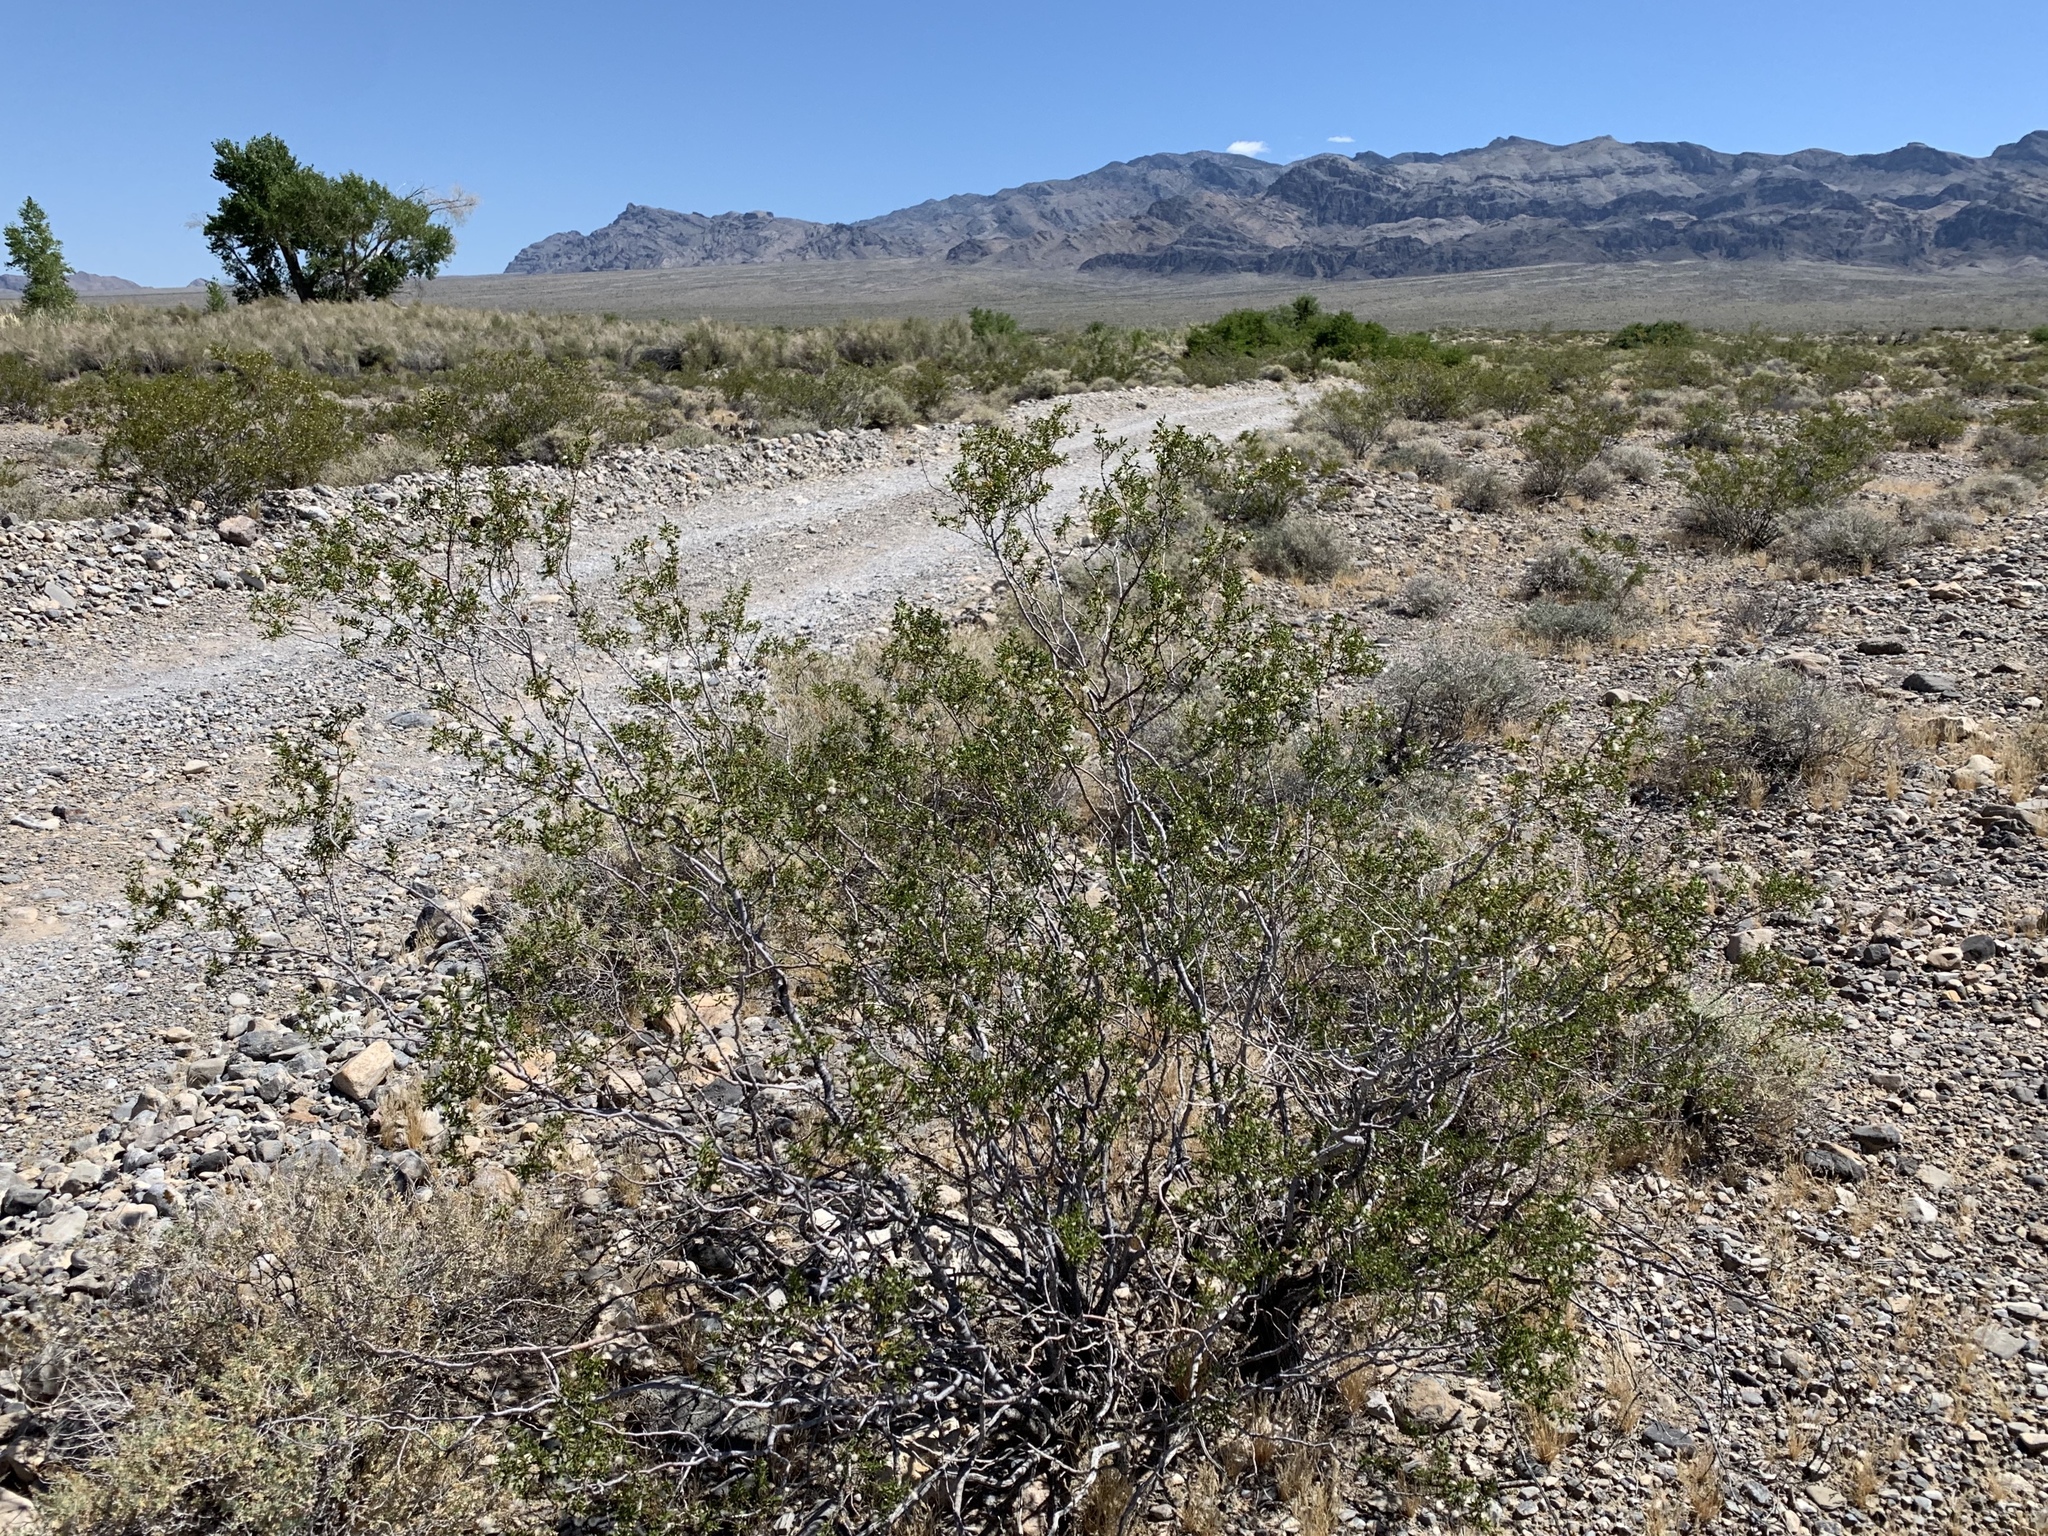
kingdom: Plantae
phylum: Tracheophyta
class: Magnoliopsida
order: Zygophyllales
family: Zygophyllaceae
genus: Larrea
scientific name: Larrea tridentata
